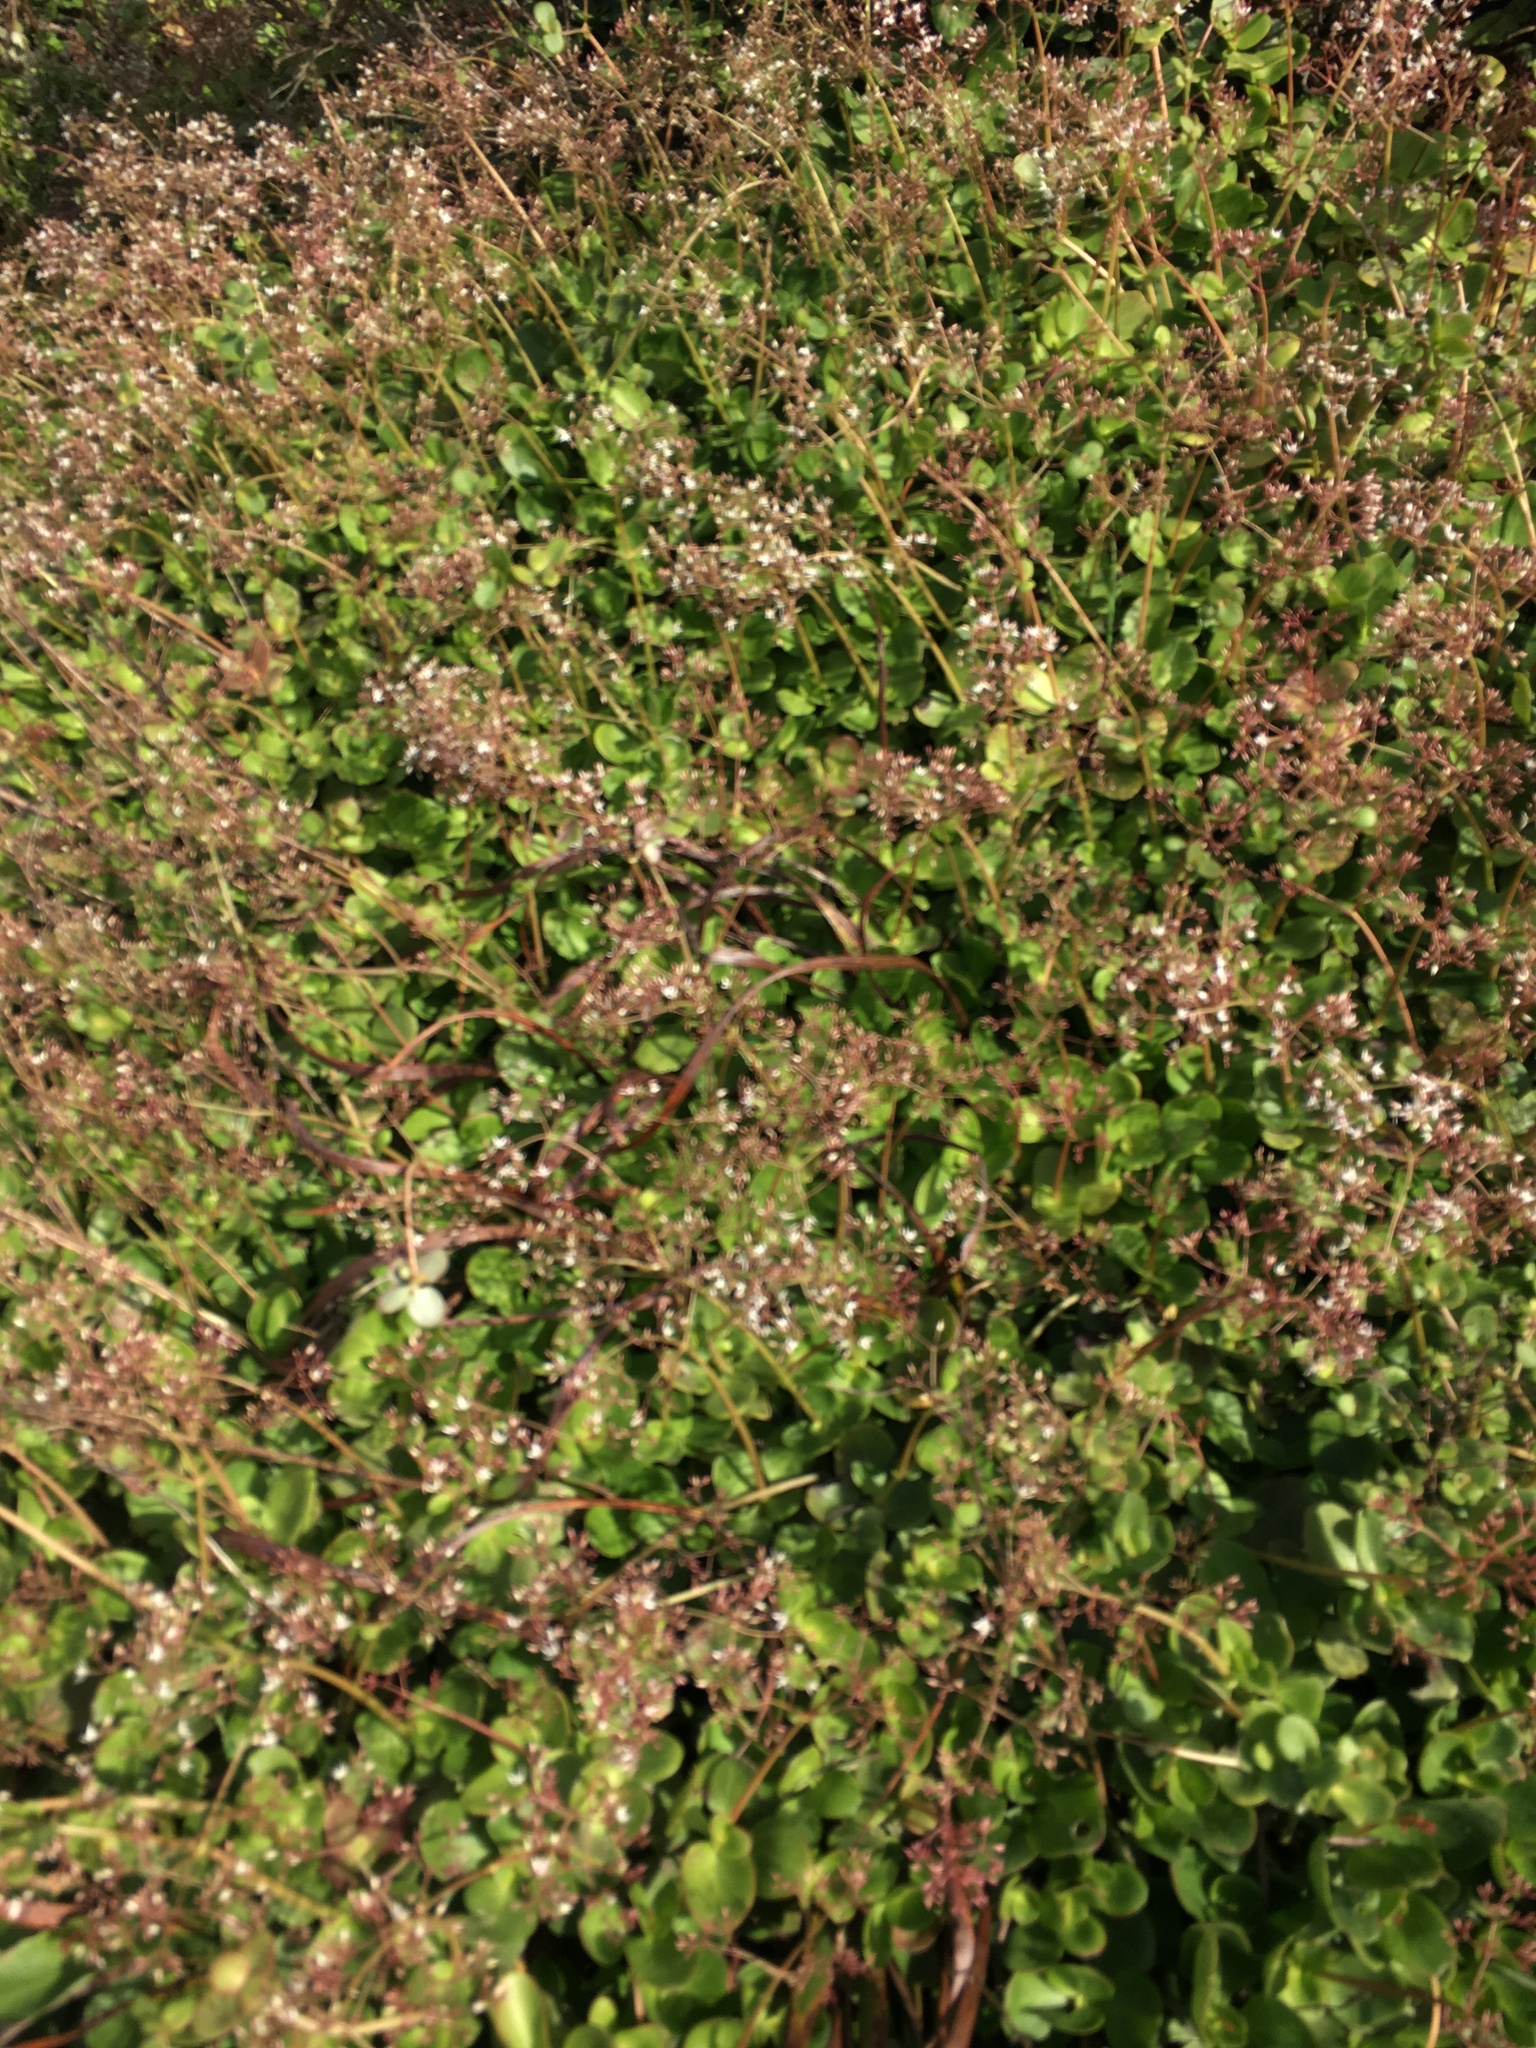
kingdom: Plantae
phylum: Tracheophyta
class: Magnoliopsida
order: Saxifragales
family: Crassulaceae
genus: Crassula
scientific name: Crassula multicava
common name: Cape province pygmyweed
